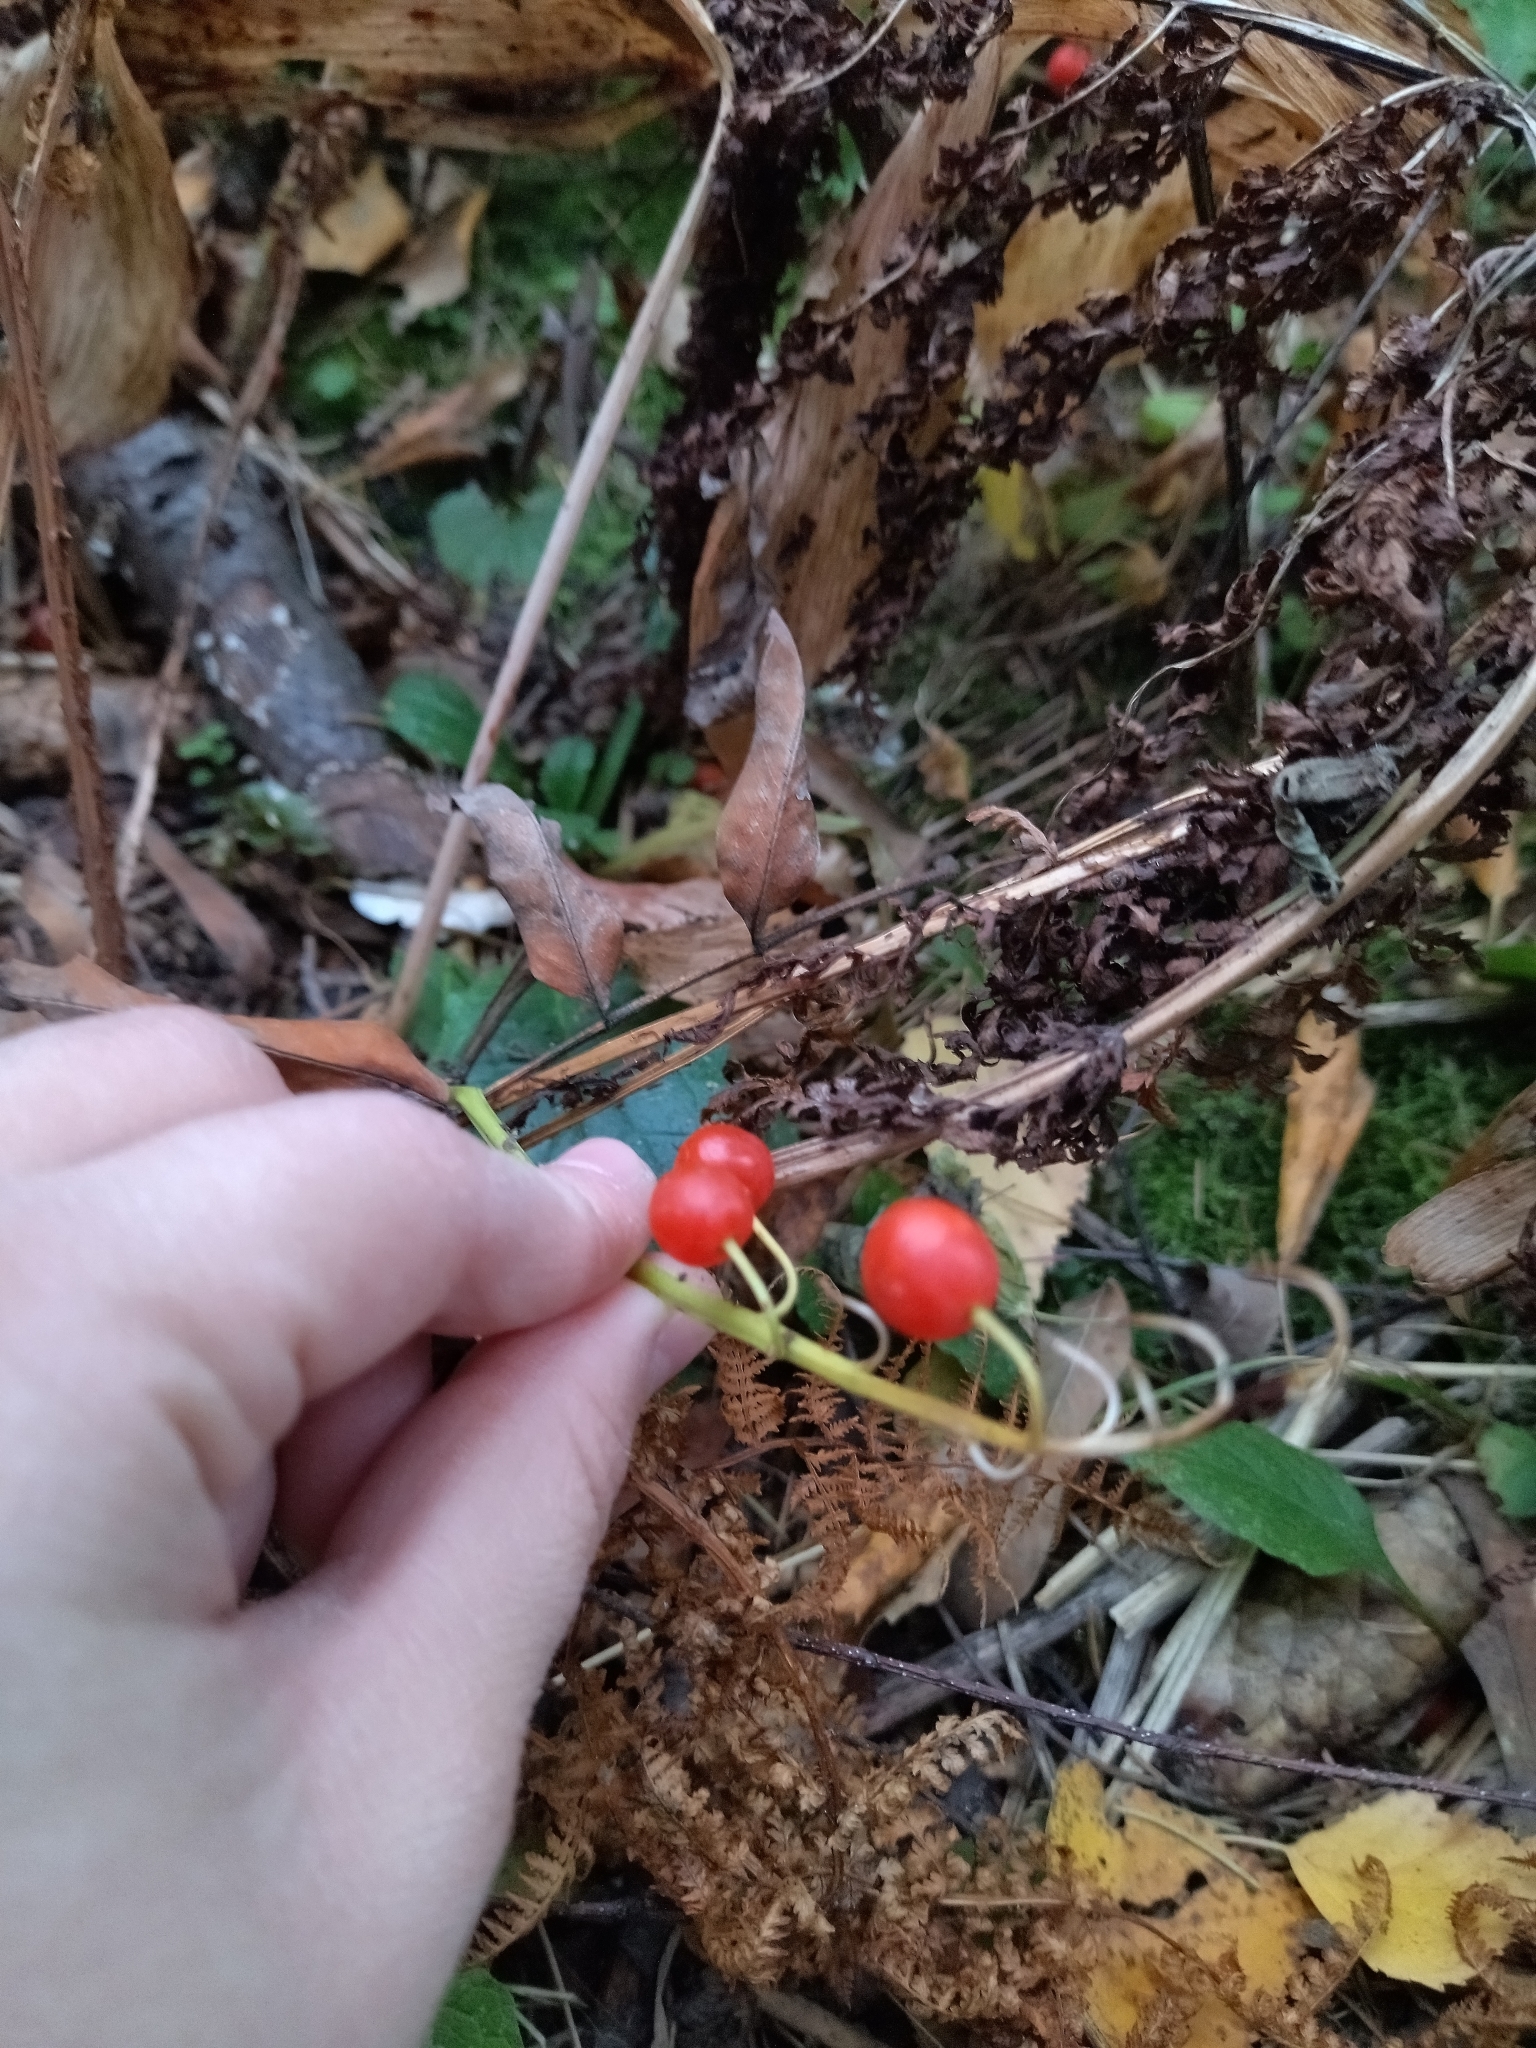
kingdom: Plantae
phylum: Tracheophyta
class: Liliopsida
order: Asparagales
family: Asparagaceae
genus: Convallaria
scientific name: Convallaria majalis
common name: Lily-of-the-valley
